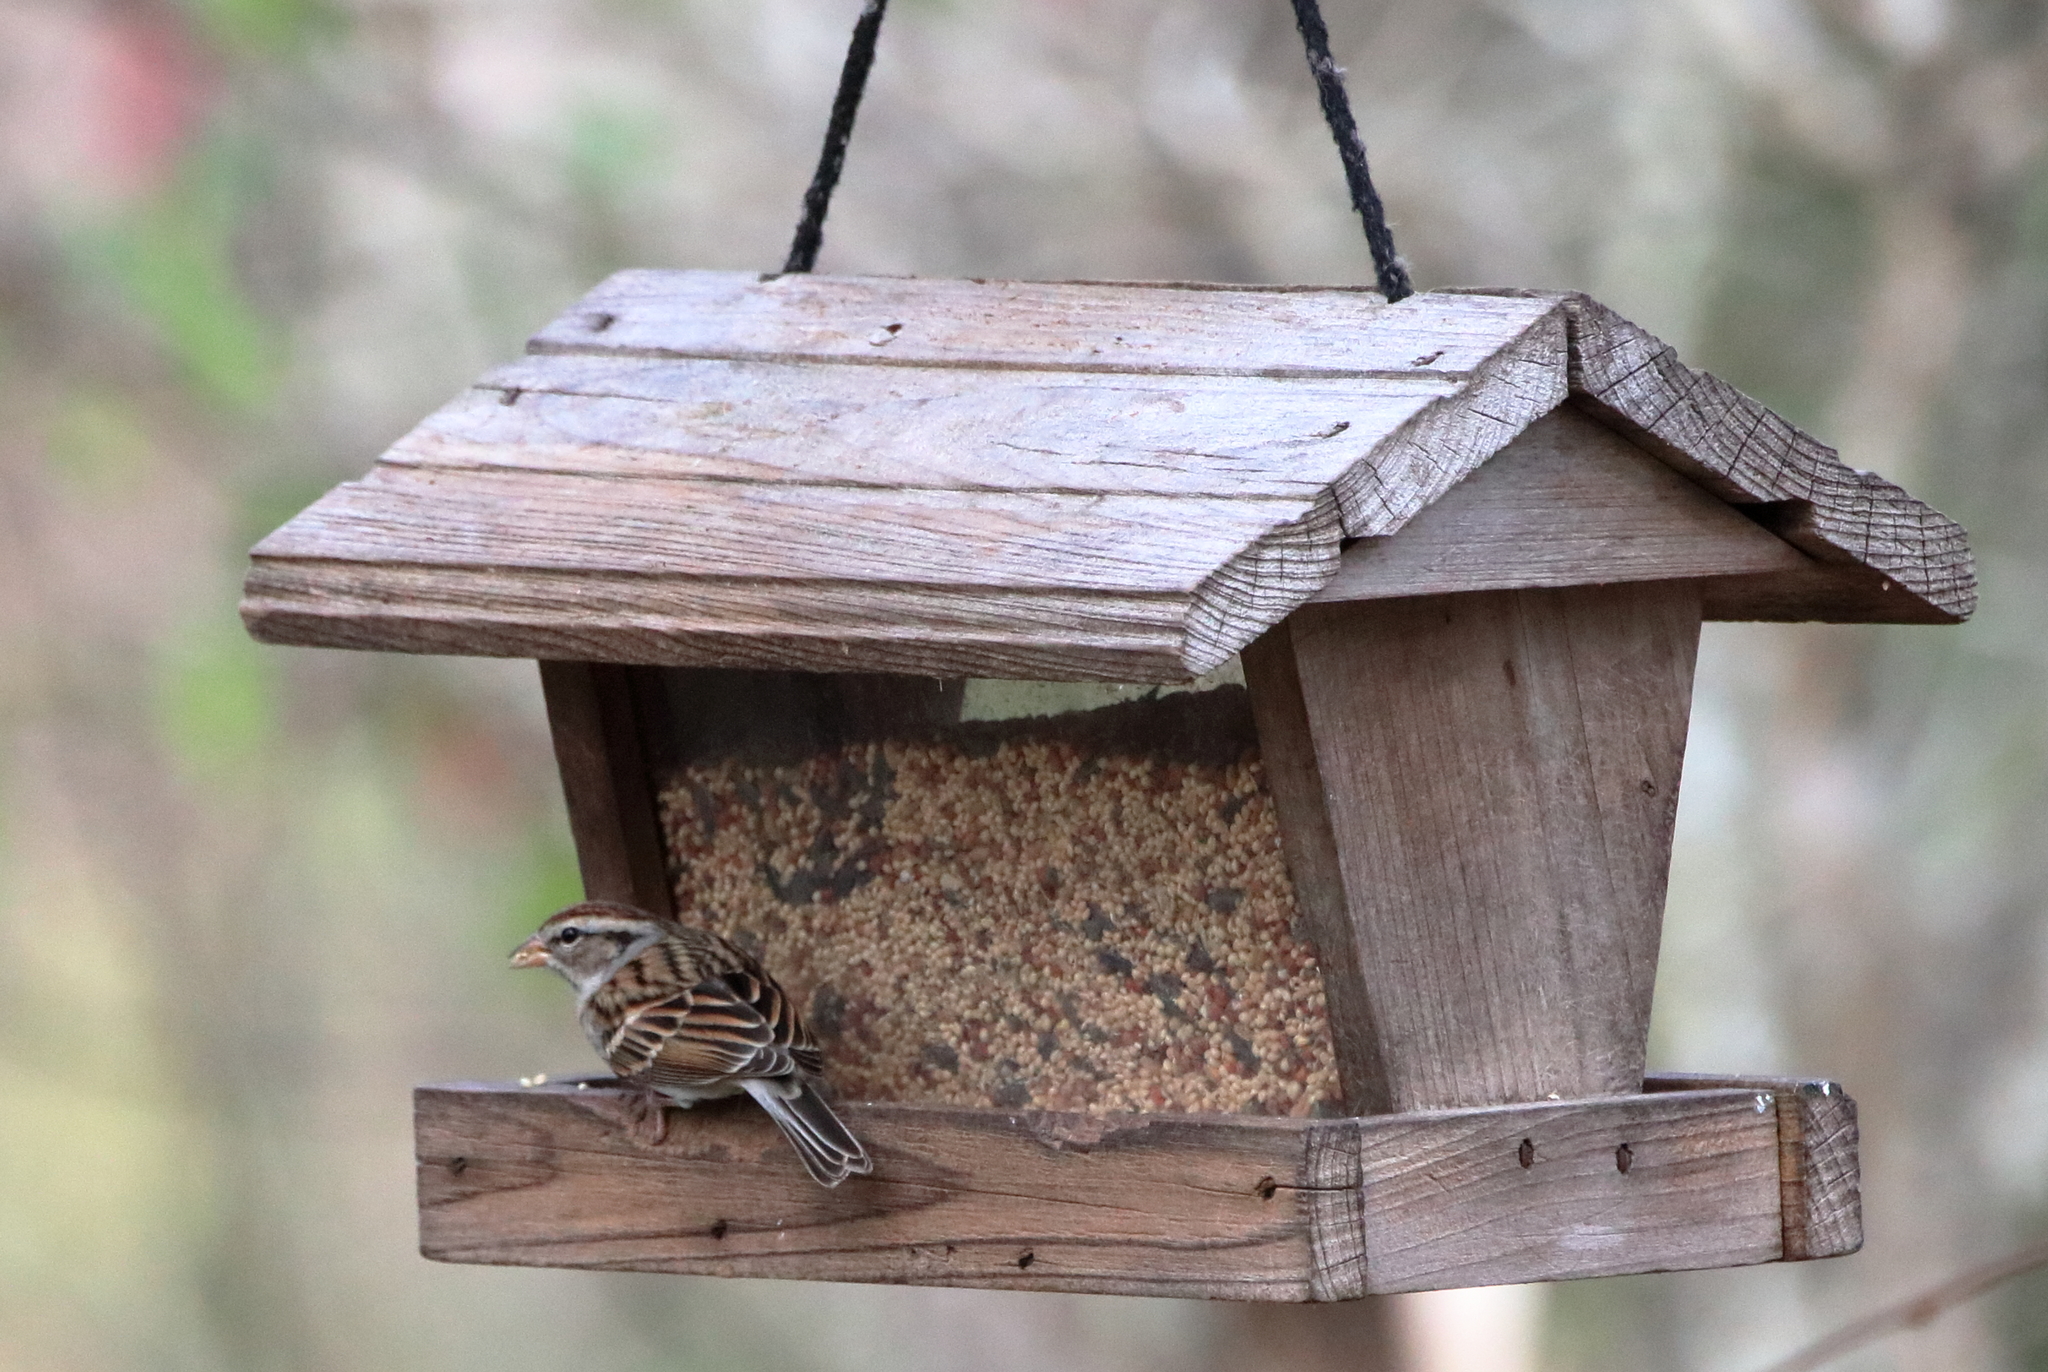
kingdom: Animalia
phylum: Chordata
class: Aves
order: Passeriformes
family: Passerellidae
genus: Spizella
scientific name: Spizella passerina
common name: Chipping sparrow
